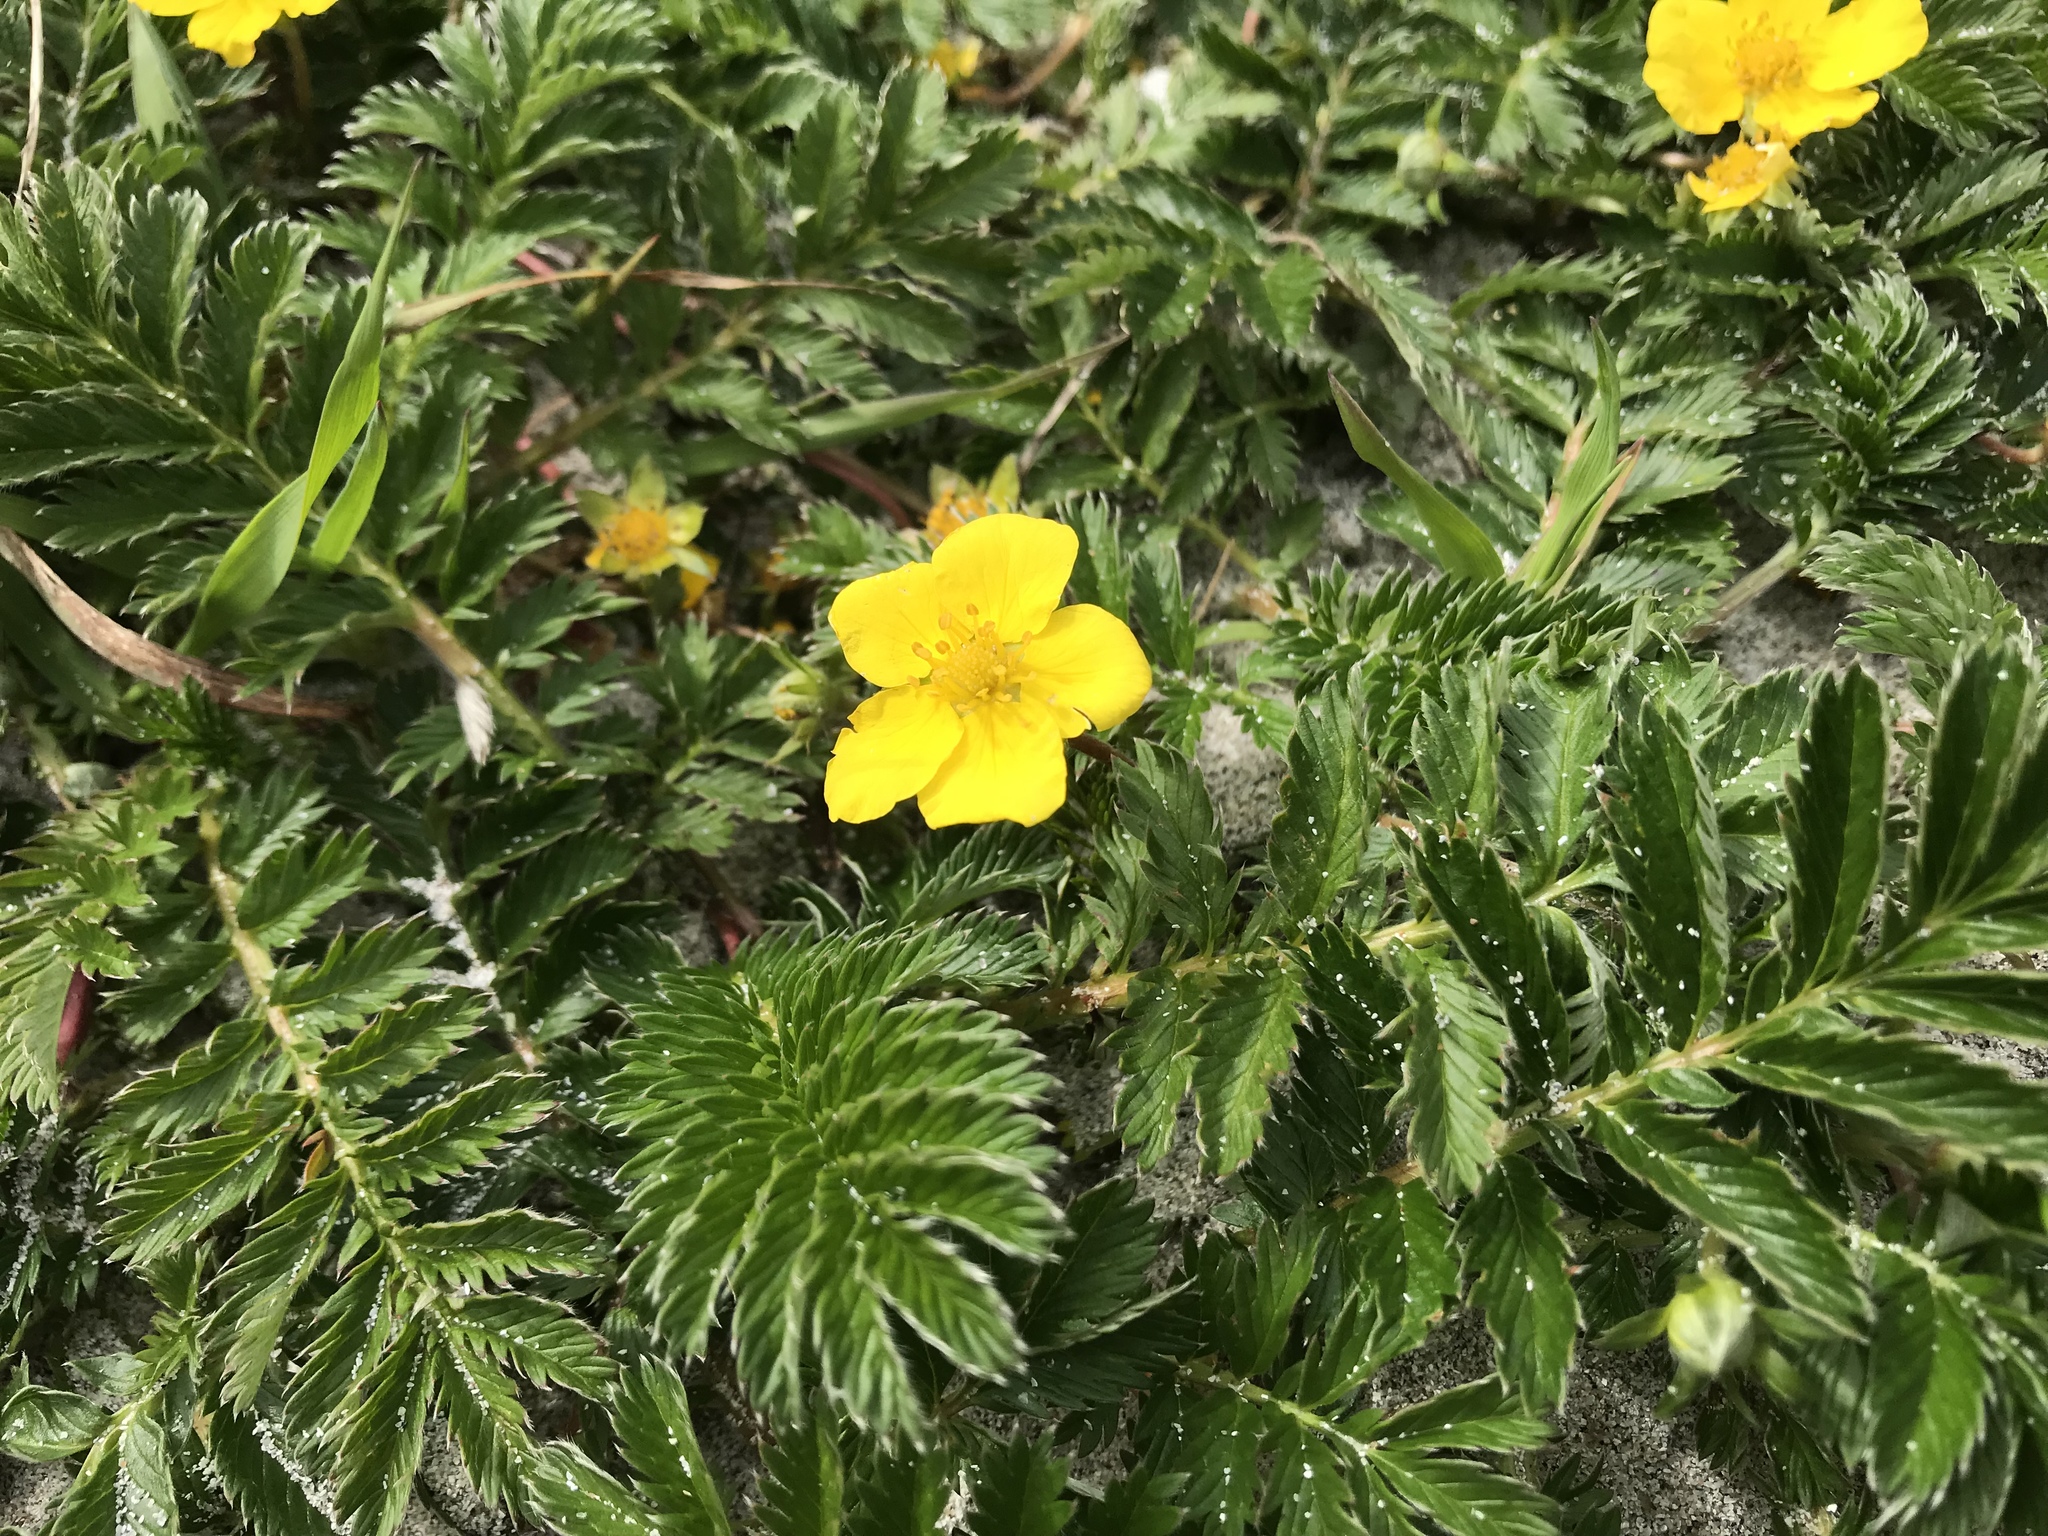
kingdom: Plantae
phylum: Tracheophyta
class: Magnoliopsida
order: Rosales
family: Rosaceae
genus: Argentina
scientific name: Argentina anserina
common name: Common silverweed
